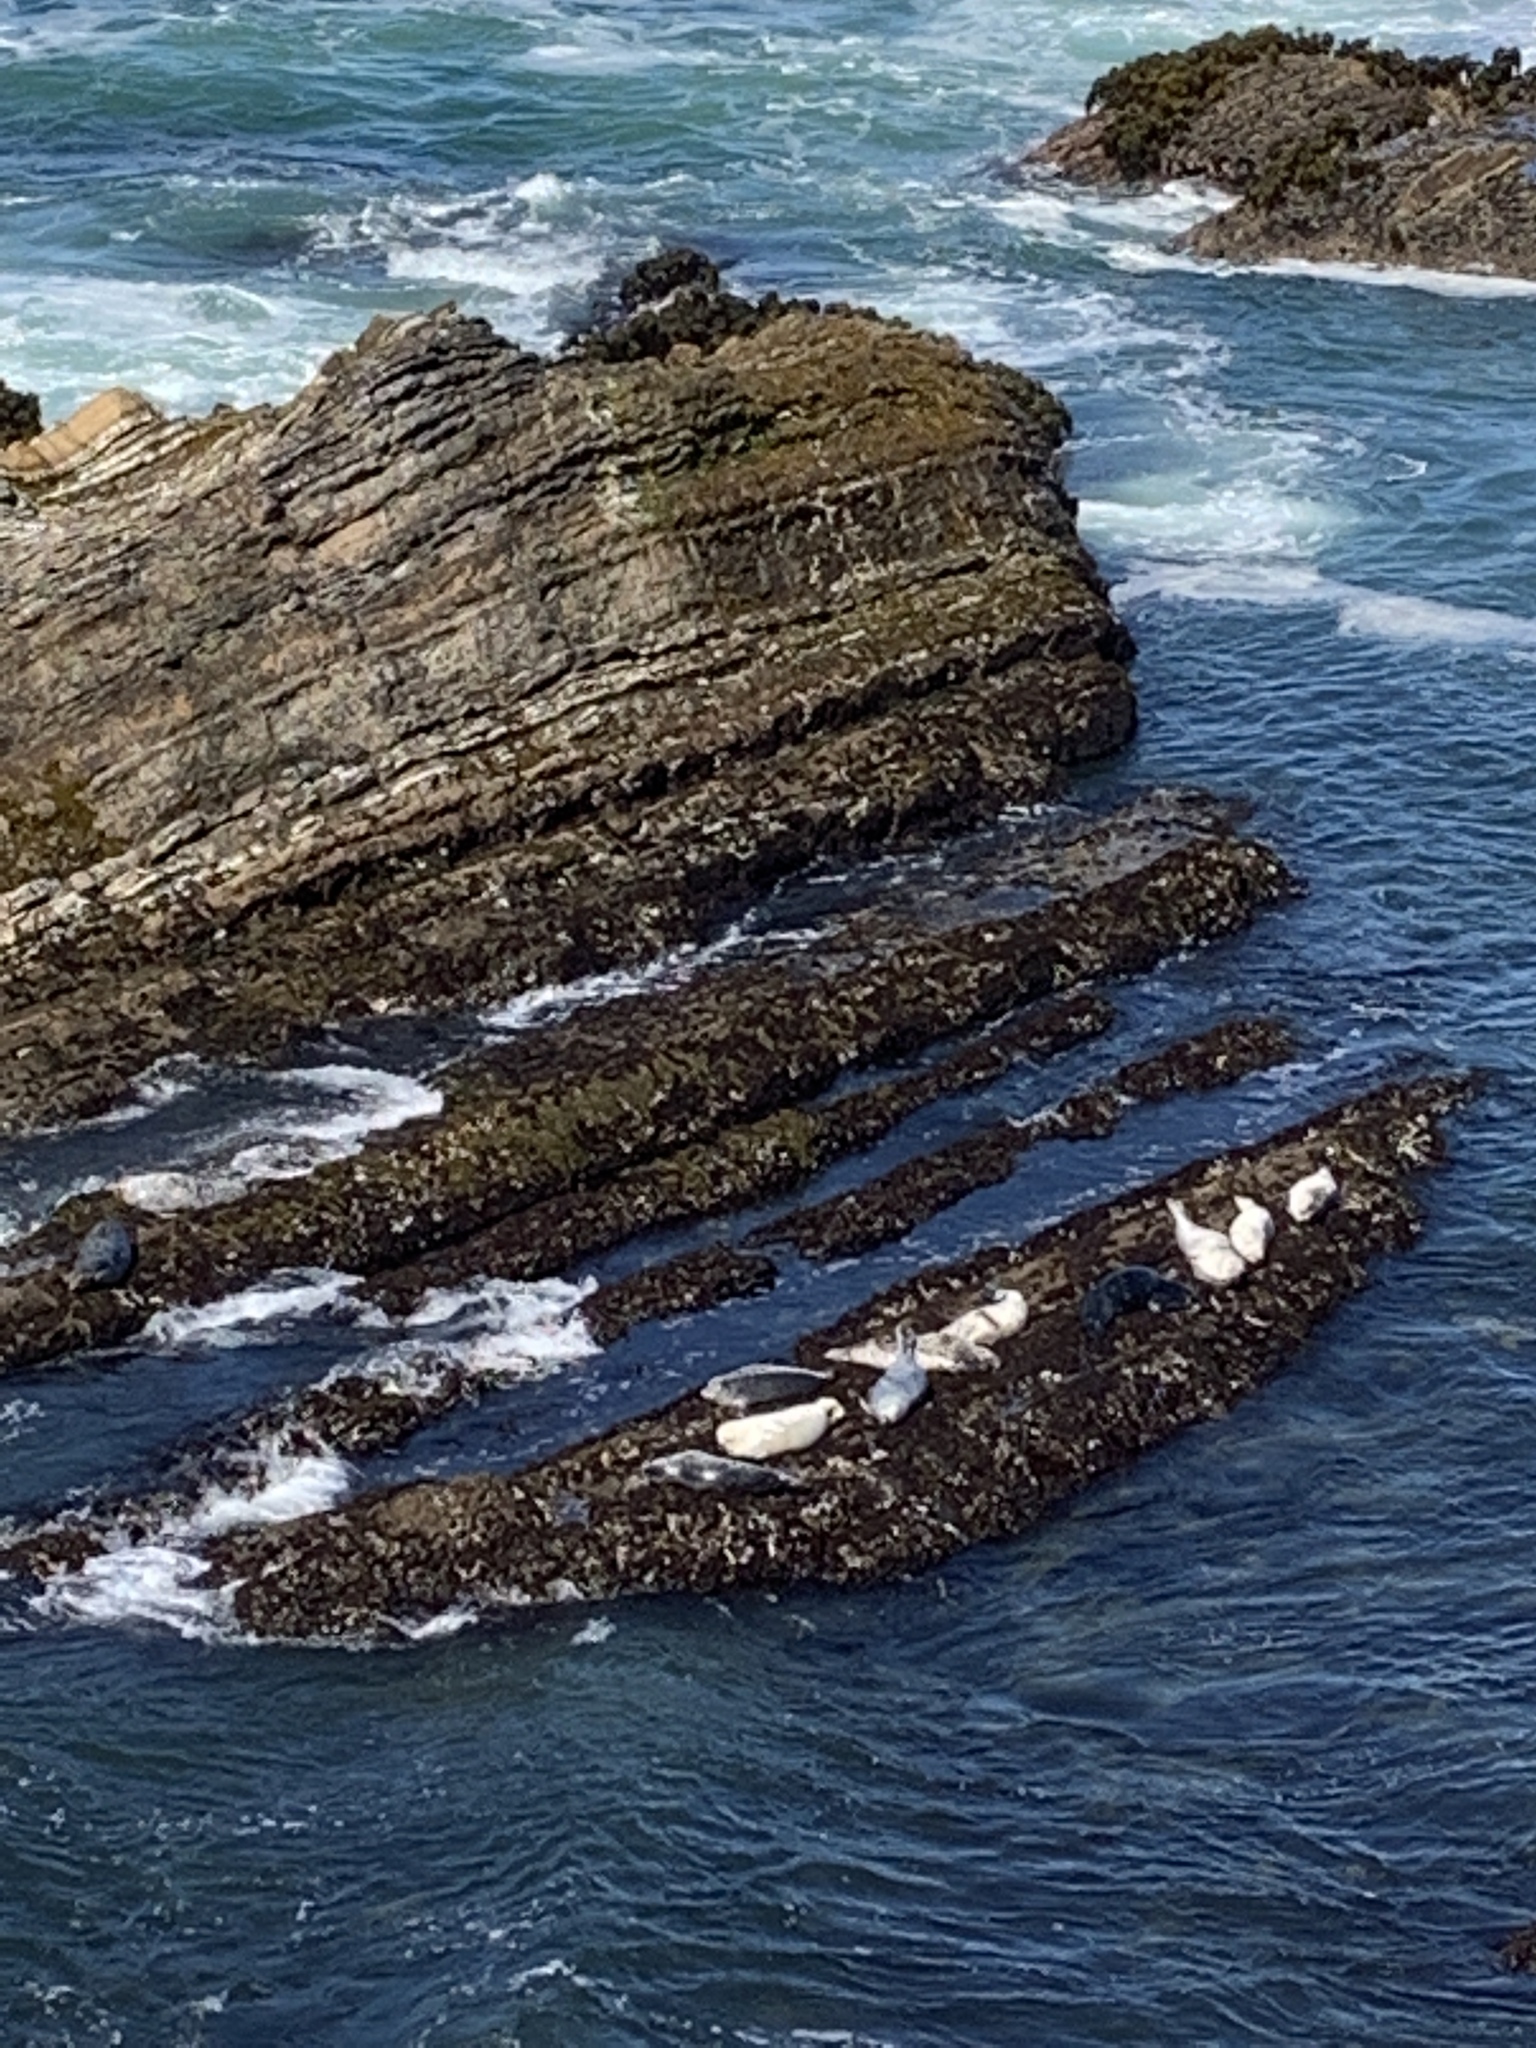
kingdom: Animalia
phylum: Chordata
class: Mammalia
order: Carnivora
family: Phocidae
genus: Phoca
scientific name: Phoca vitulina
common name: Harbor seal
